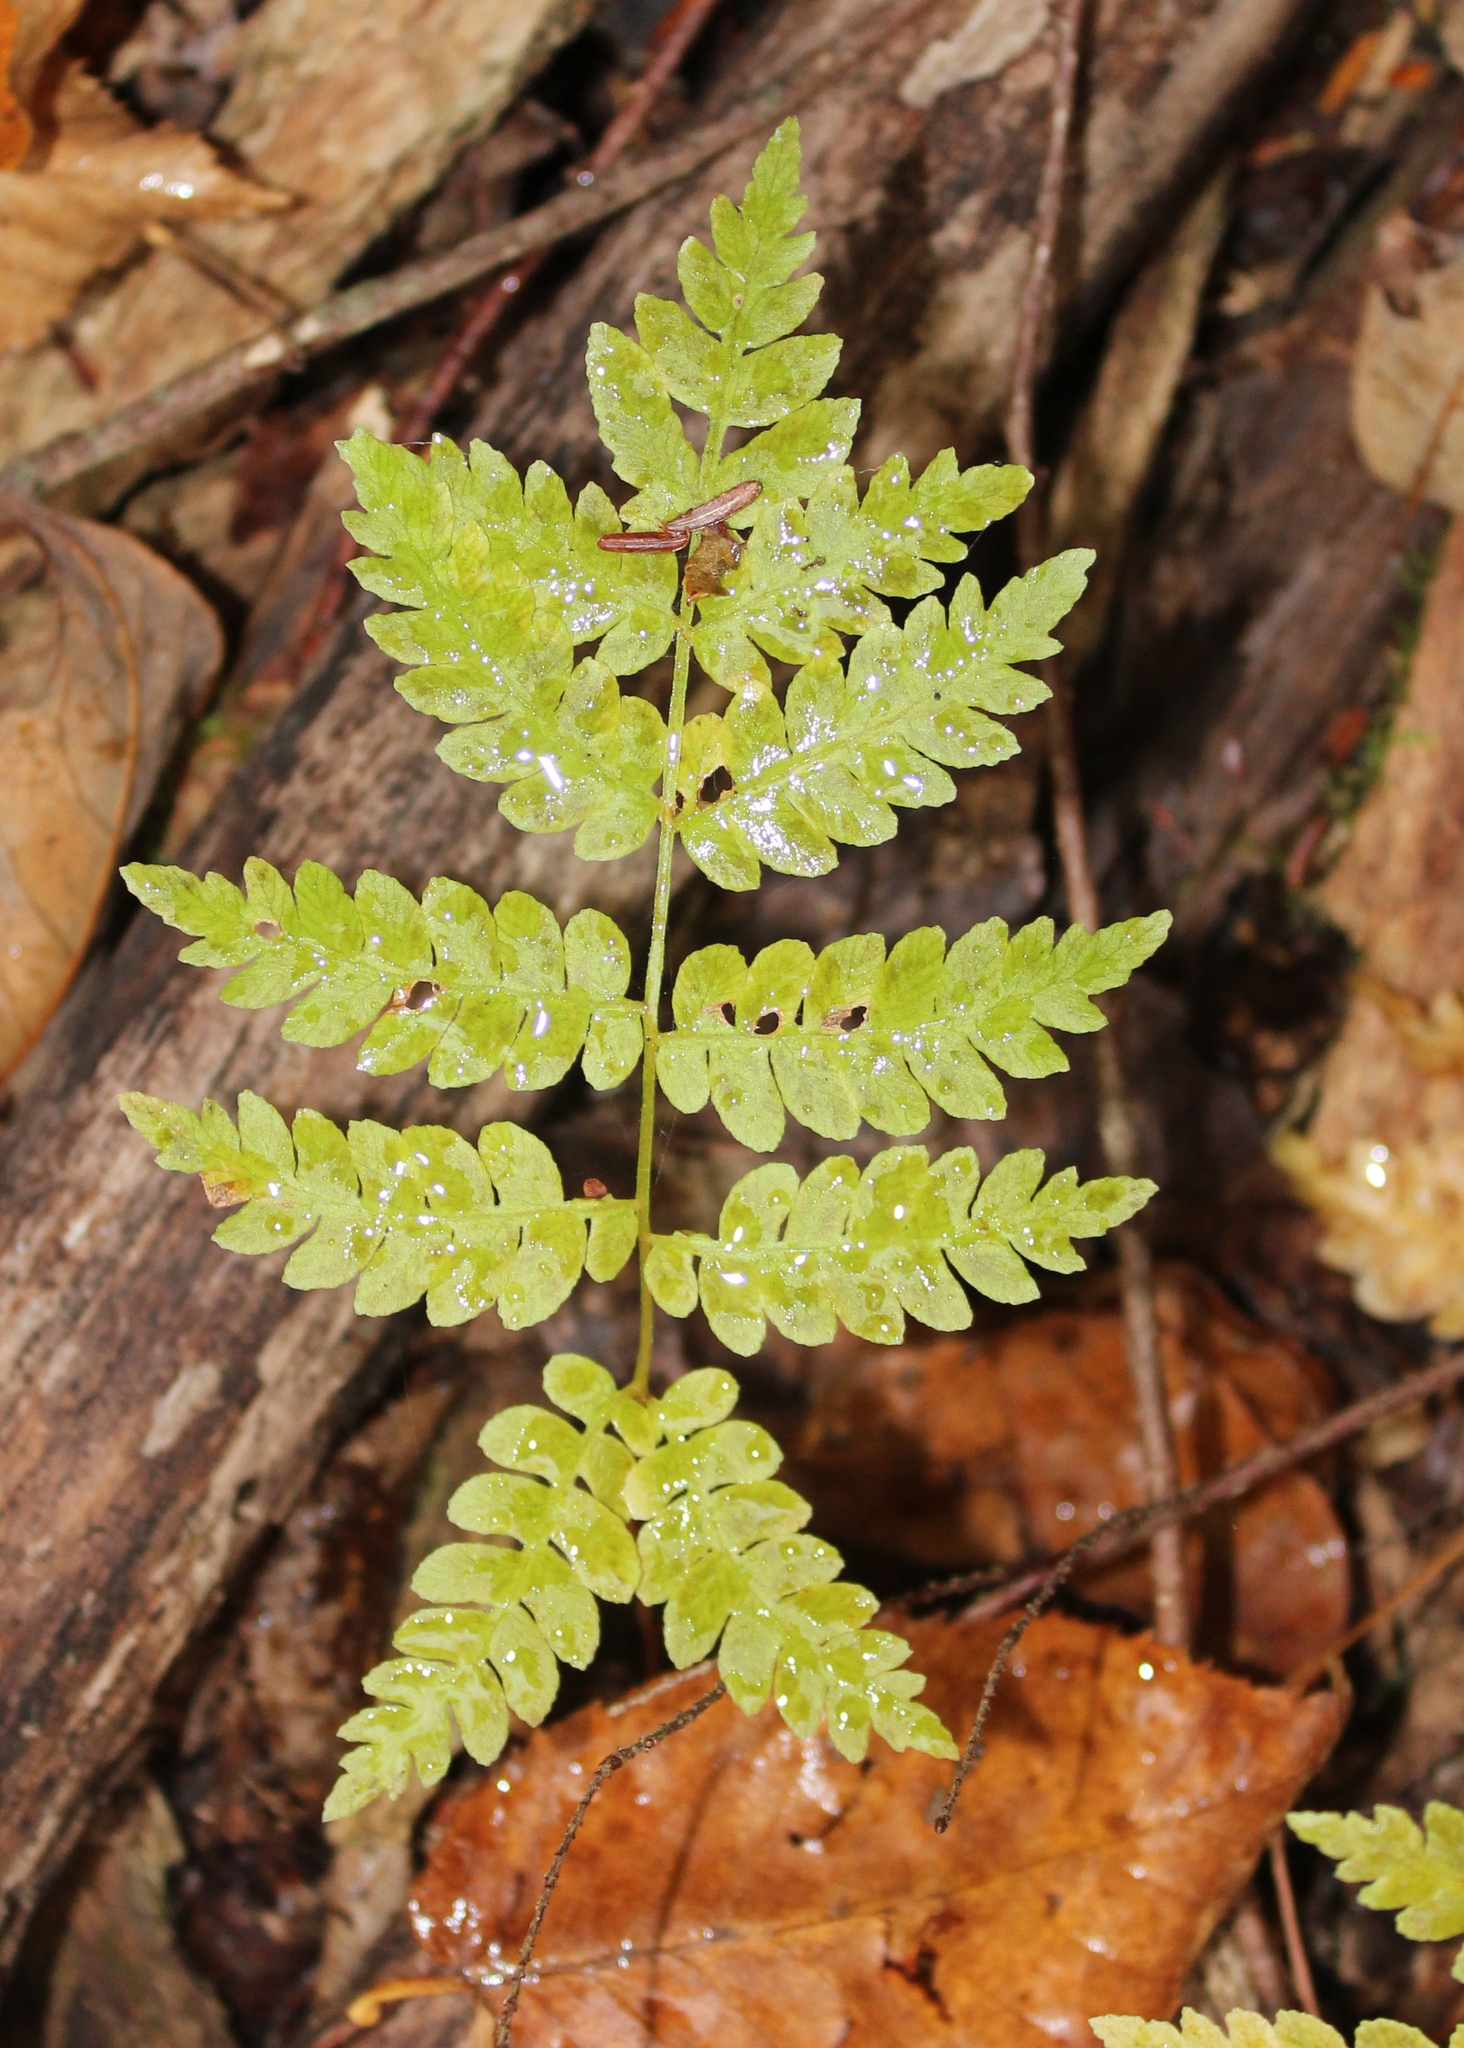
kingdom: Plantae
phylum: Tracheophyta
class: Polypodiopsida
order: Osmundales
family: Osmundaceae
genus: Osmundastrum
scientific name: Osmundastrum cinnamomeum
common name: Cinnamon fern
